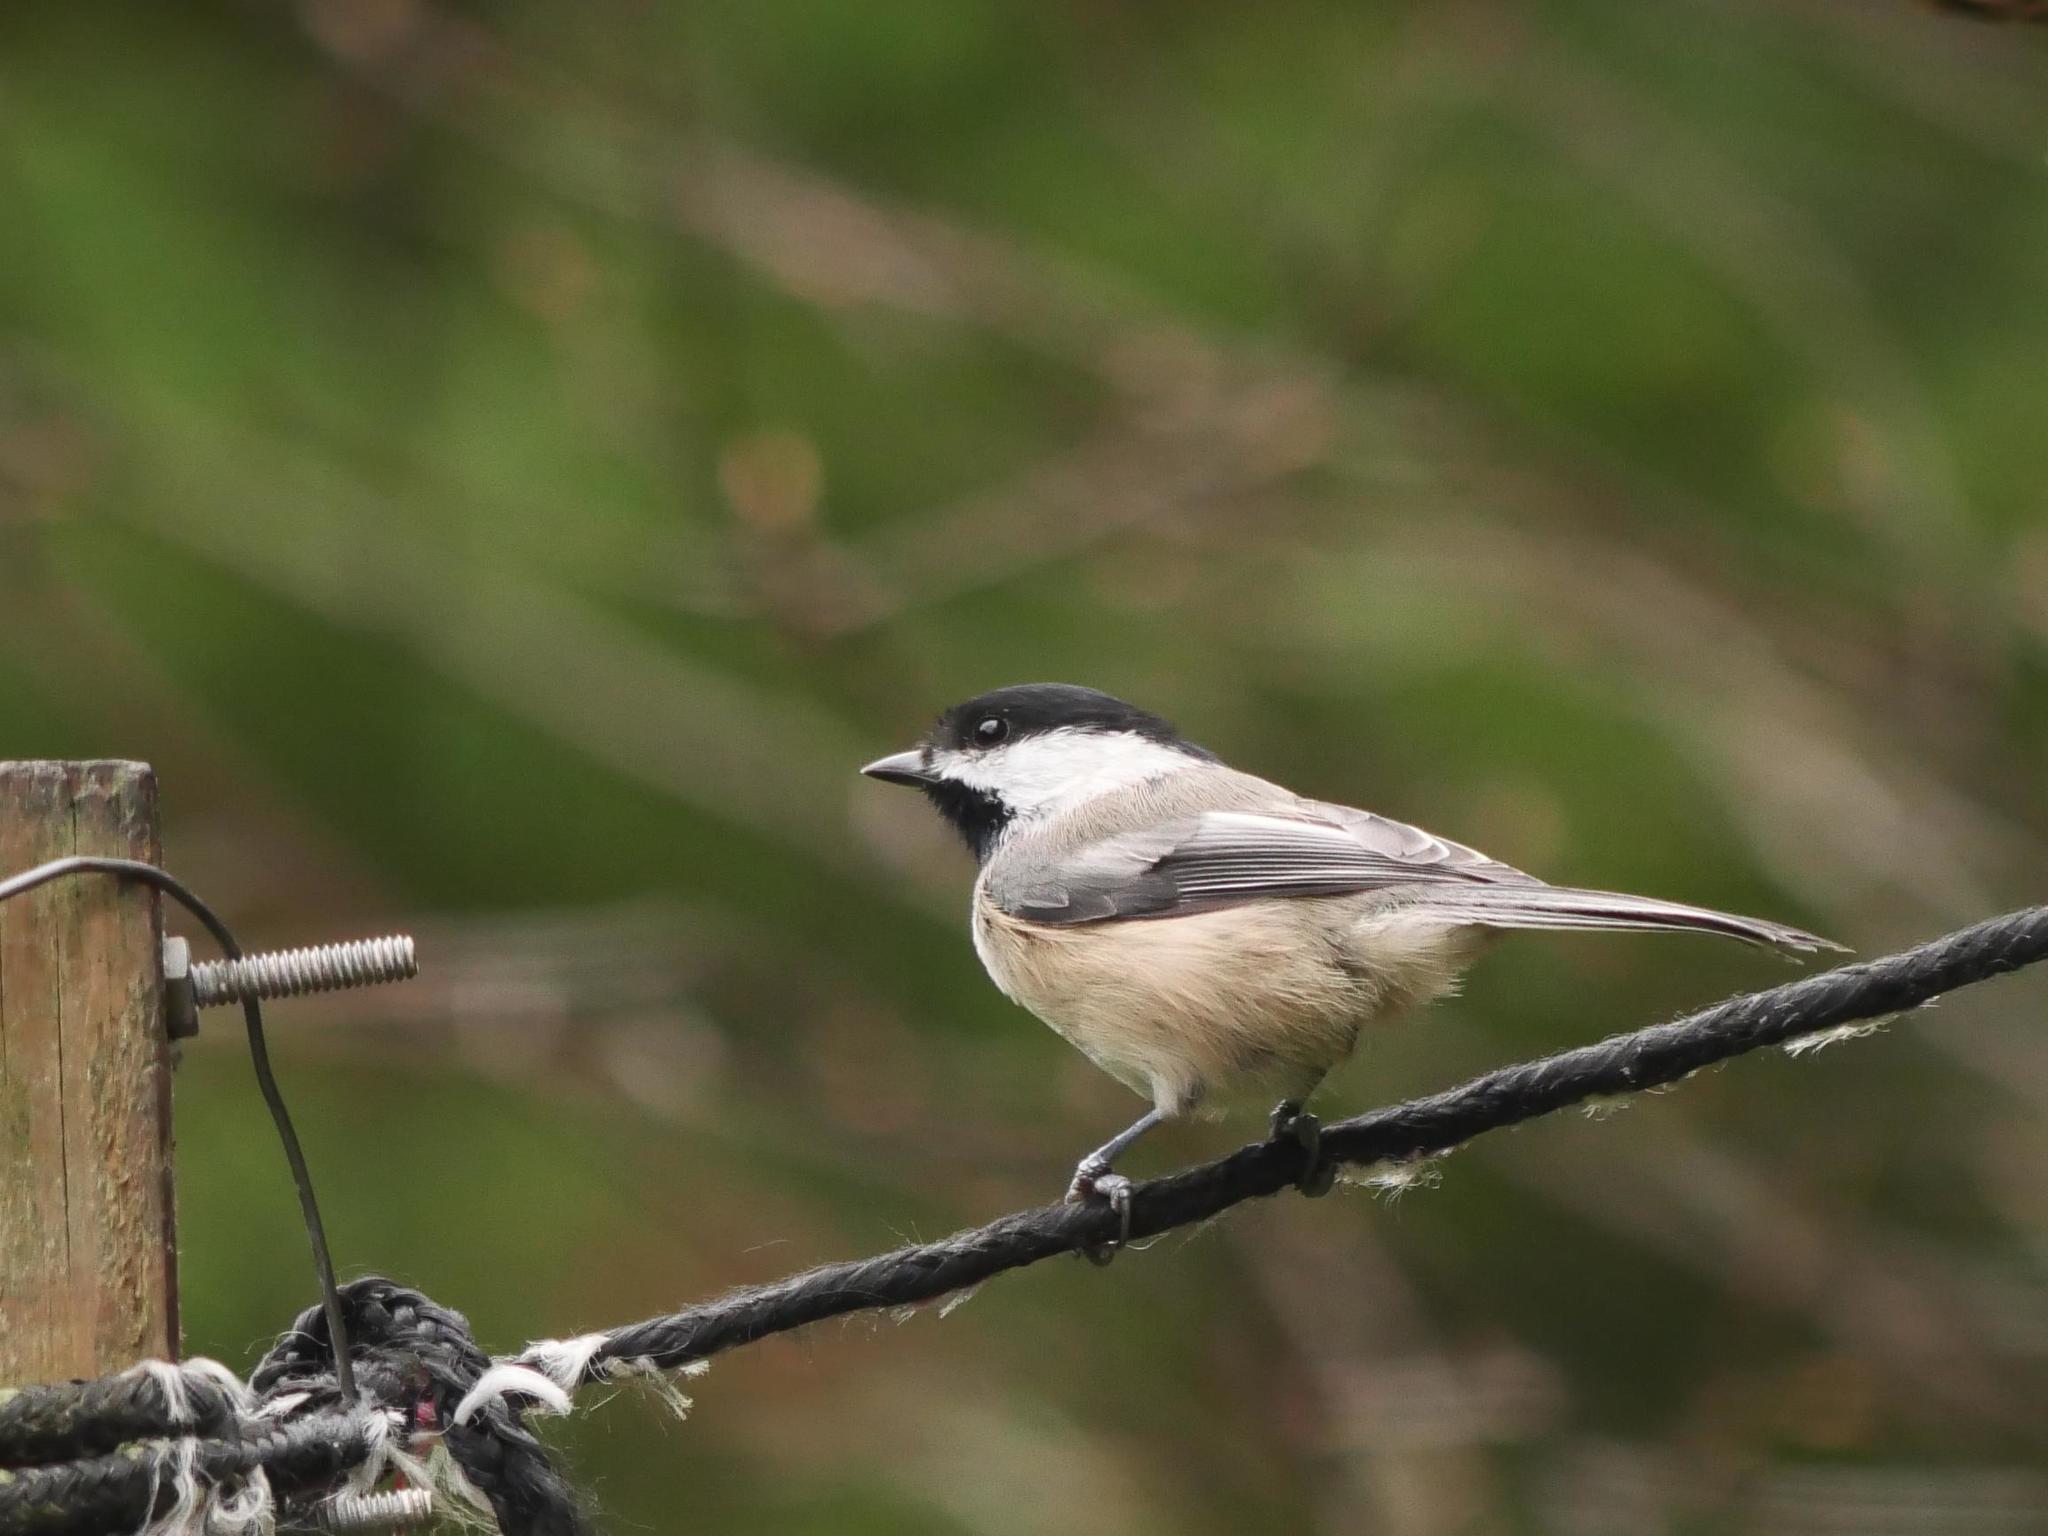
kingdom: Animalia
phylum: Chordata
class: Aves
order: Passeriformes
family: Paridae
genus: Poecile
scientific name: Poecile atricapillus
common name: Black-capped chickadee
